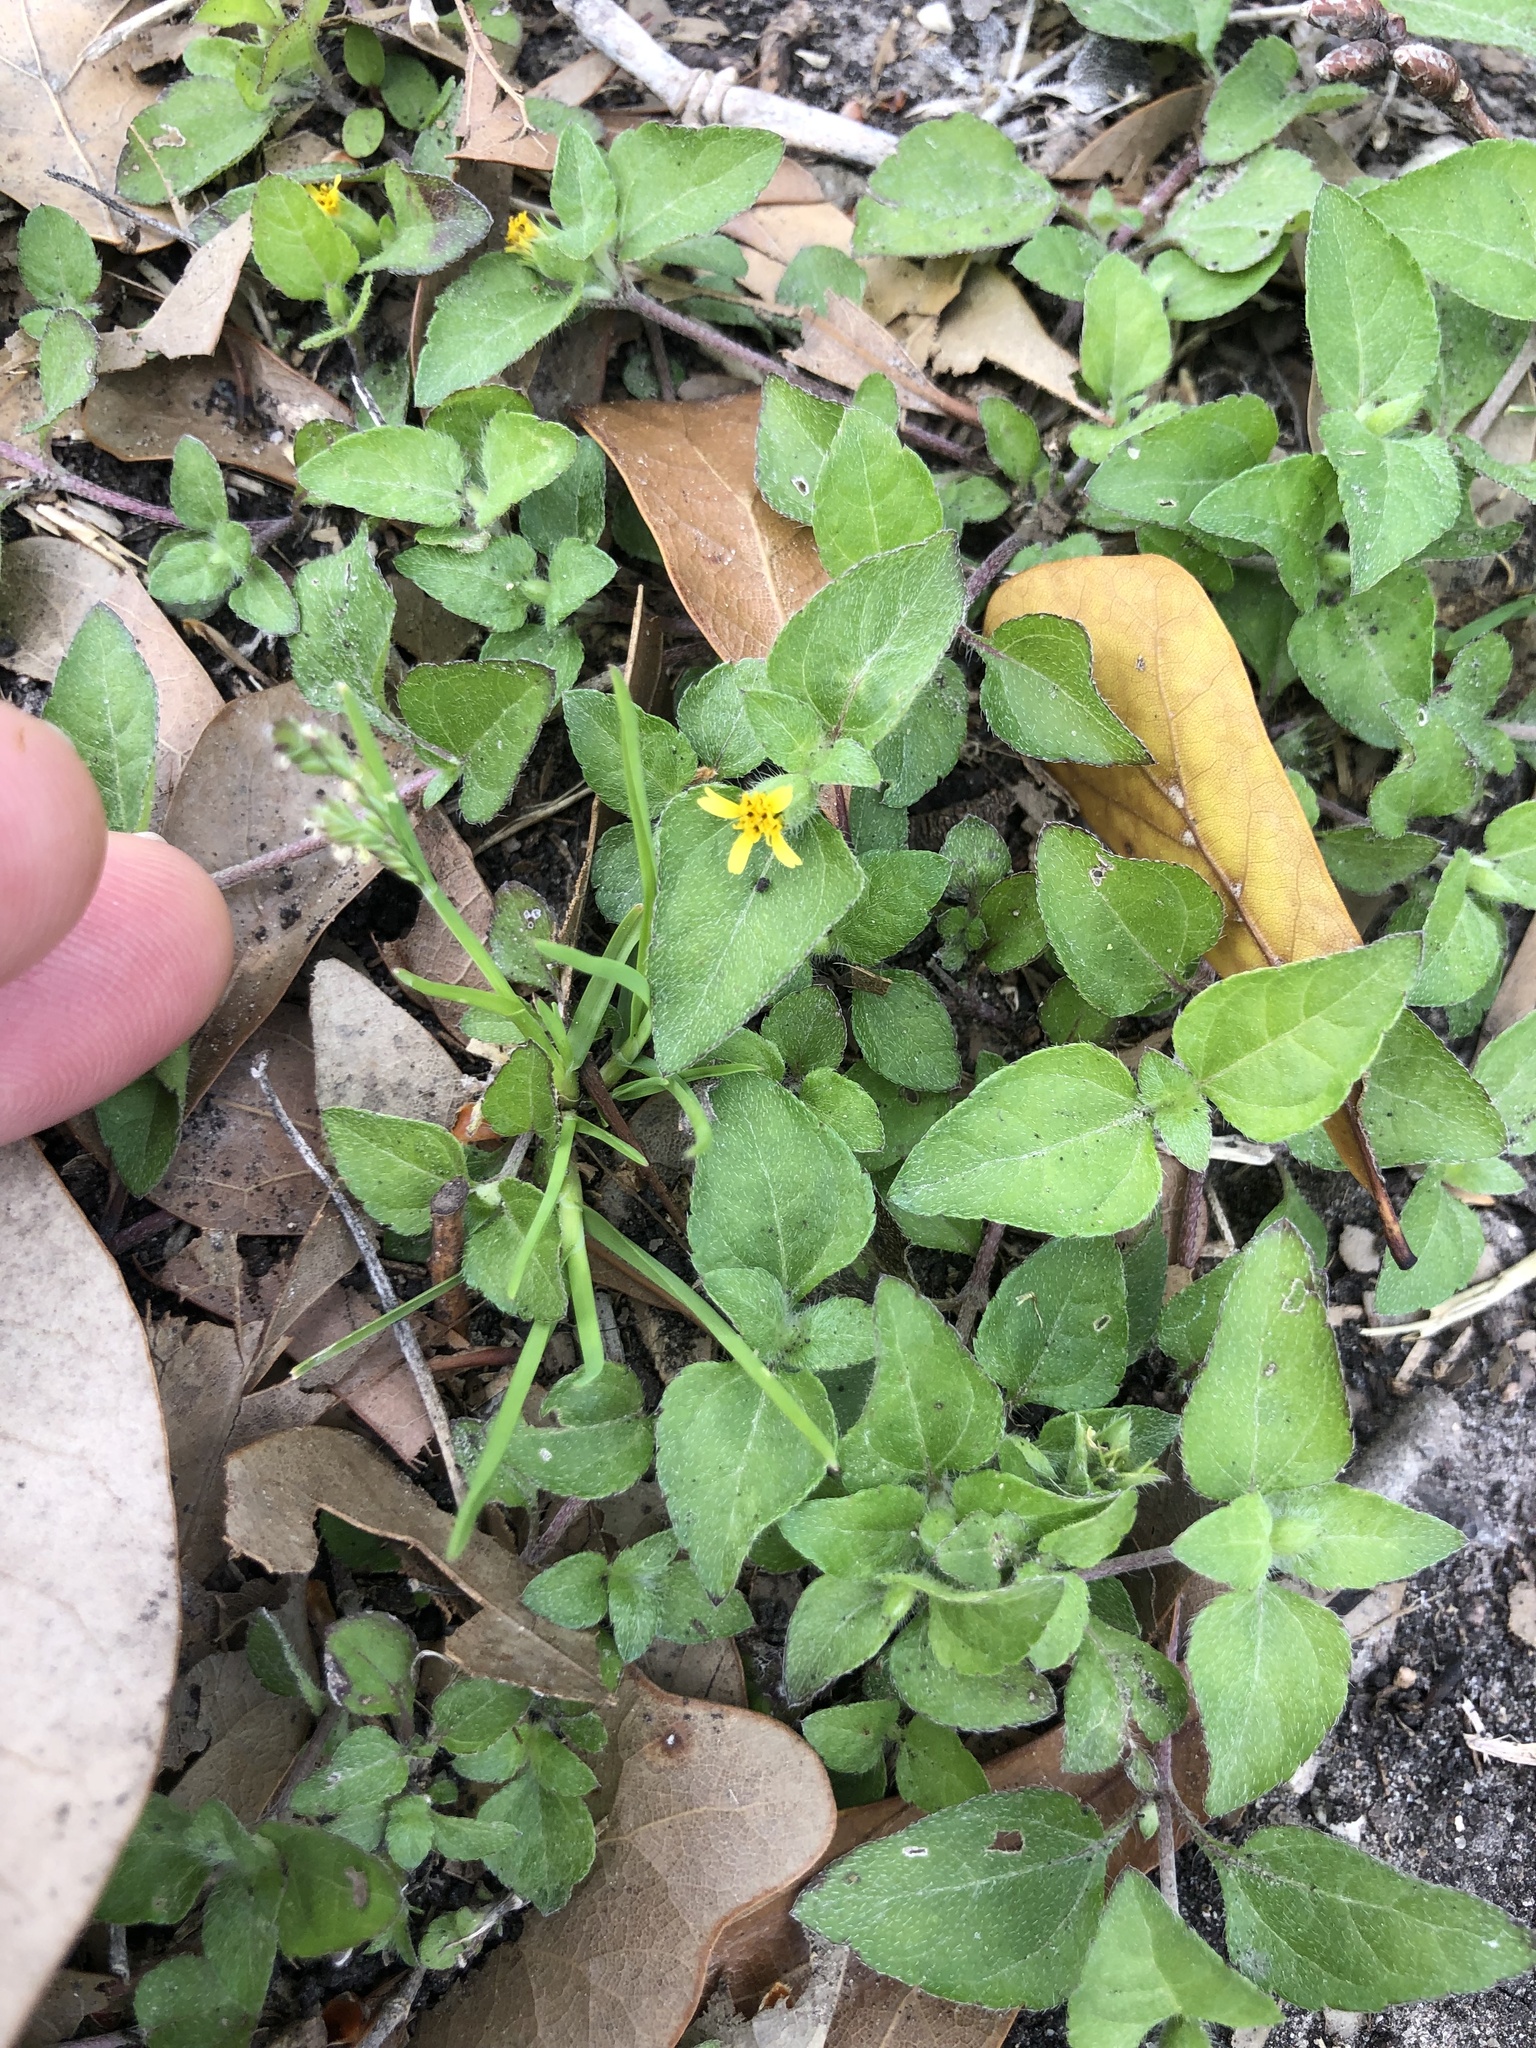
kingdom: Plantae
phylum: Tracheophyta
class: Magnoliopsida
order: Asterales
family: Asteraceae
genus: Calyptocarpus
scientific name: Calyptocarpus vialis
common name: Straggler daisy
